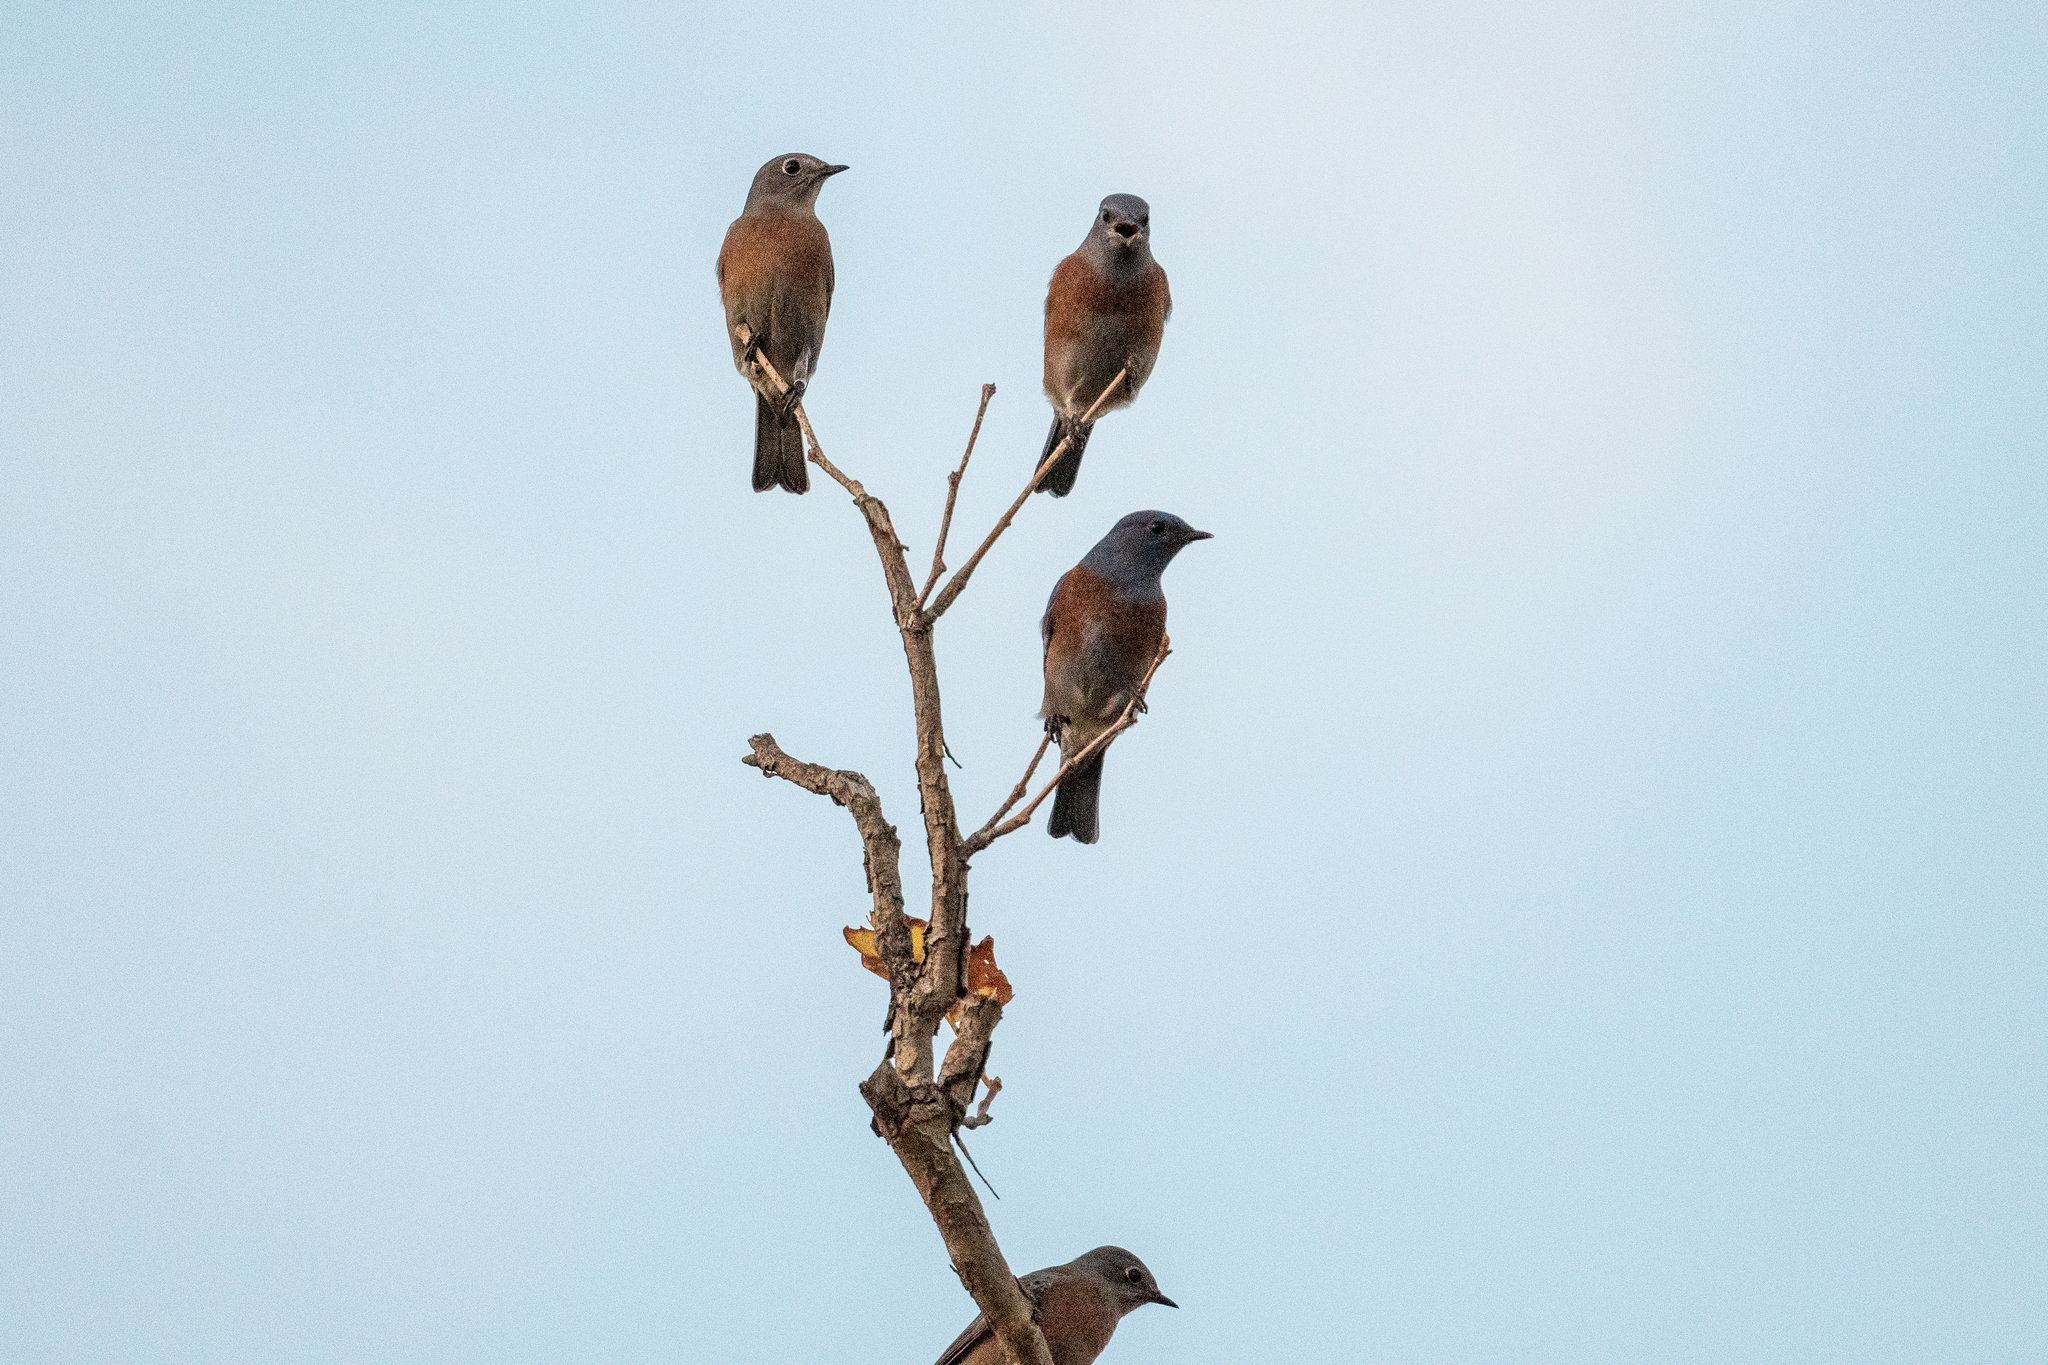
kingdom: Animalia
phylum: Chordata
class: Aves
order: Passeriformes
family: Turdidae
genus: Sialia
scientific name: Sialia mexicana
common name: Western bluebird
